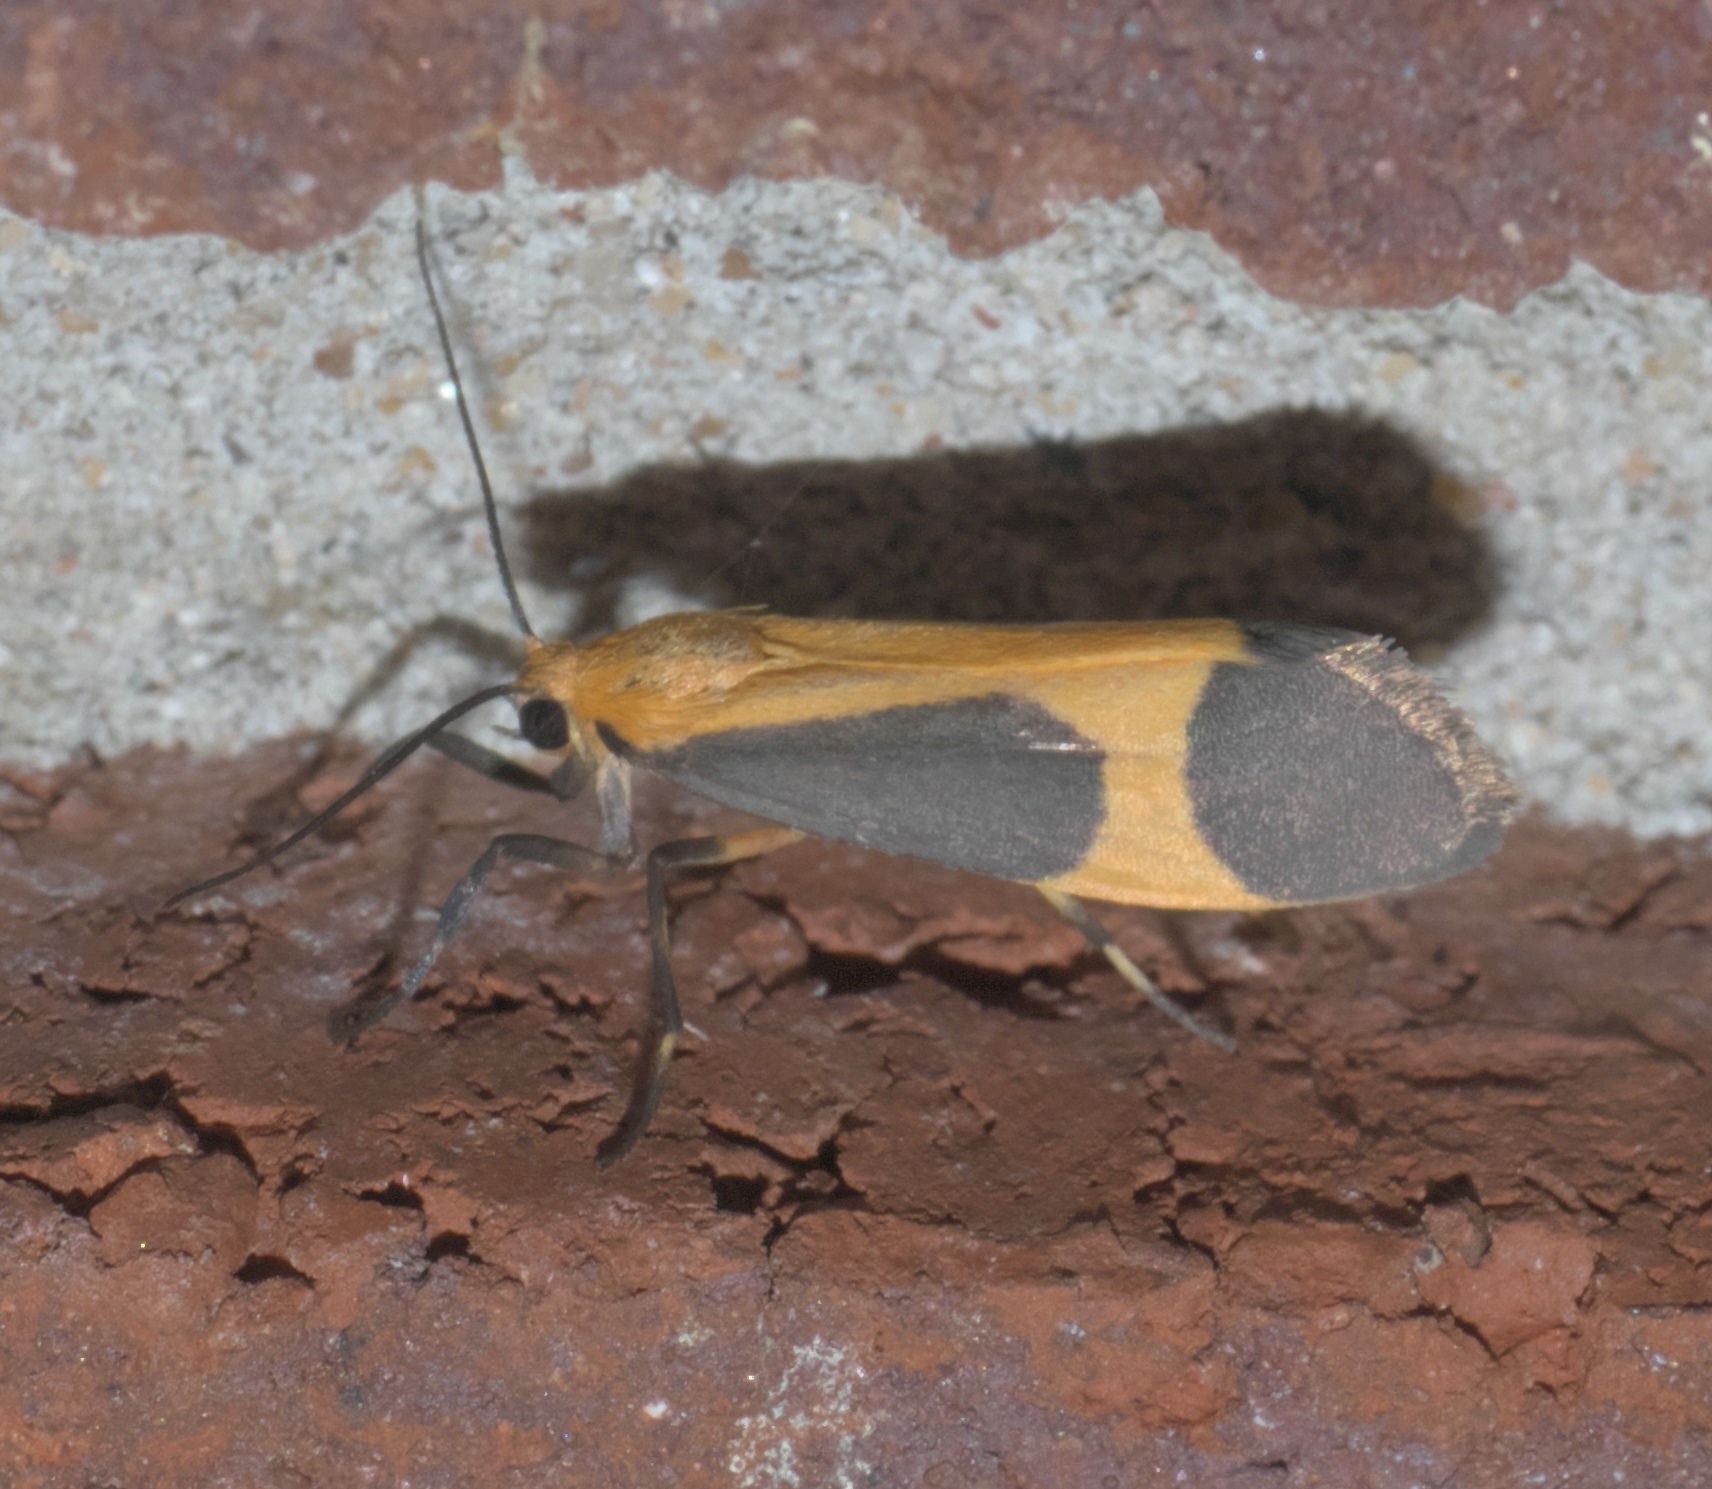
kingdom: Animalia
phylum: Arthropoda
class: Insecta
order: Lepidoptera
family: Erebidae
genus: Cisthene
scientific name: Cisthene picta
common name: Pictured lichen moth
